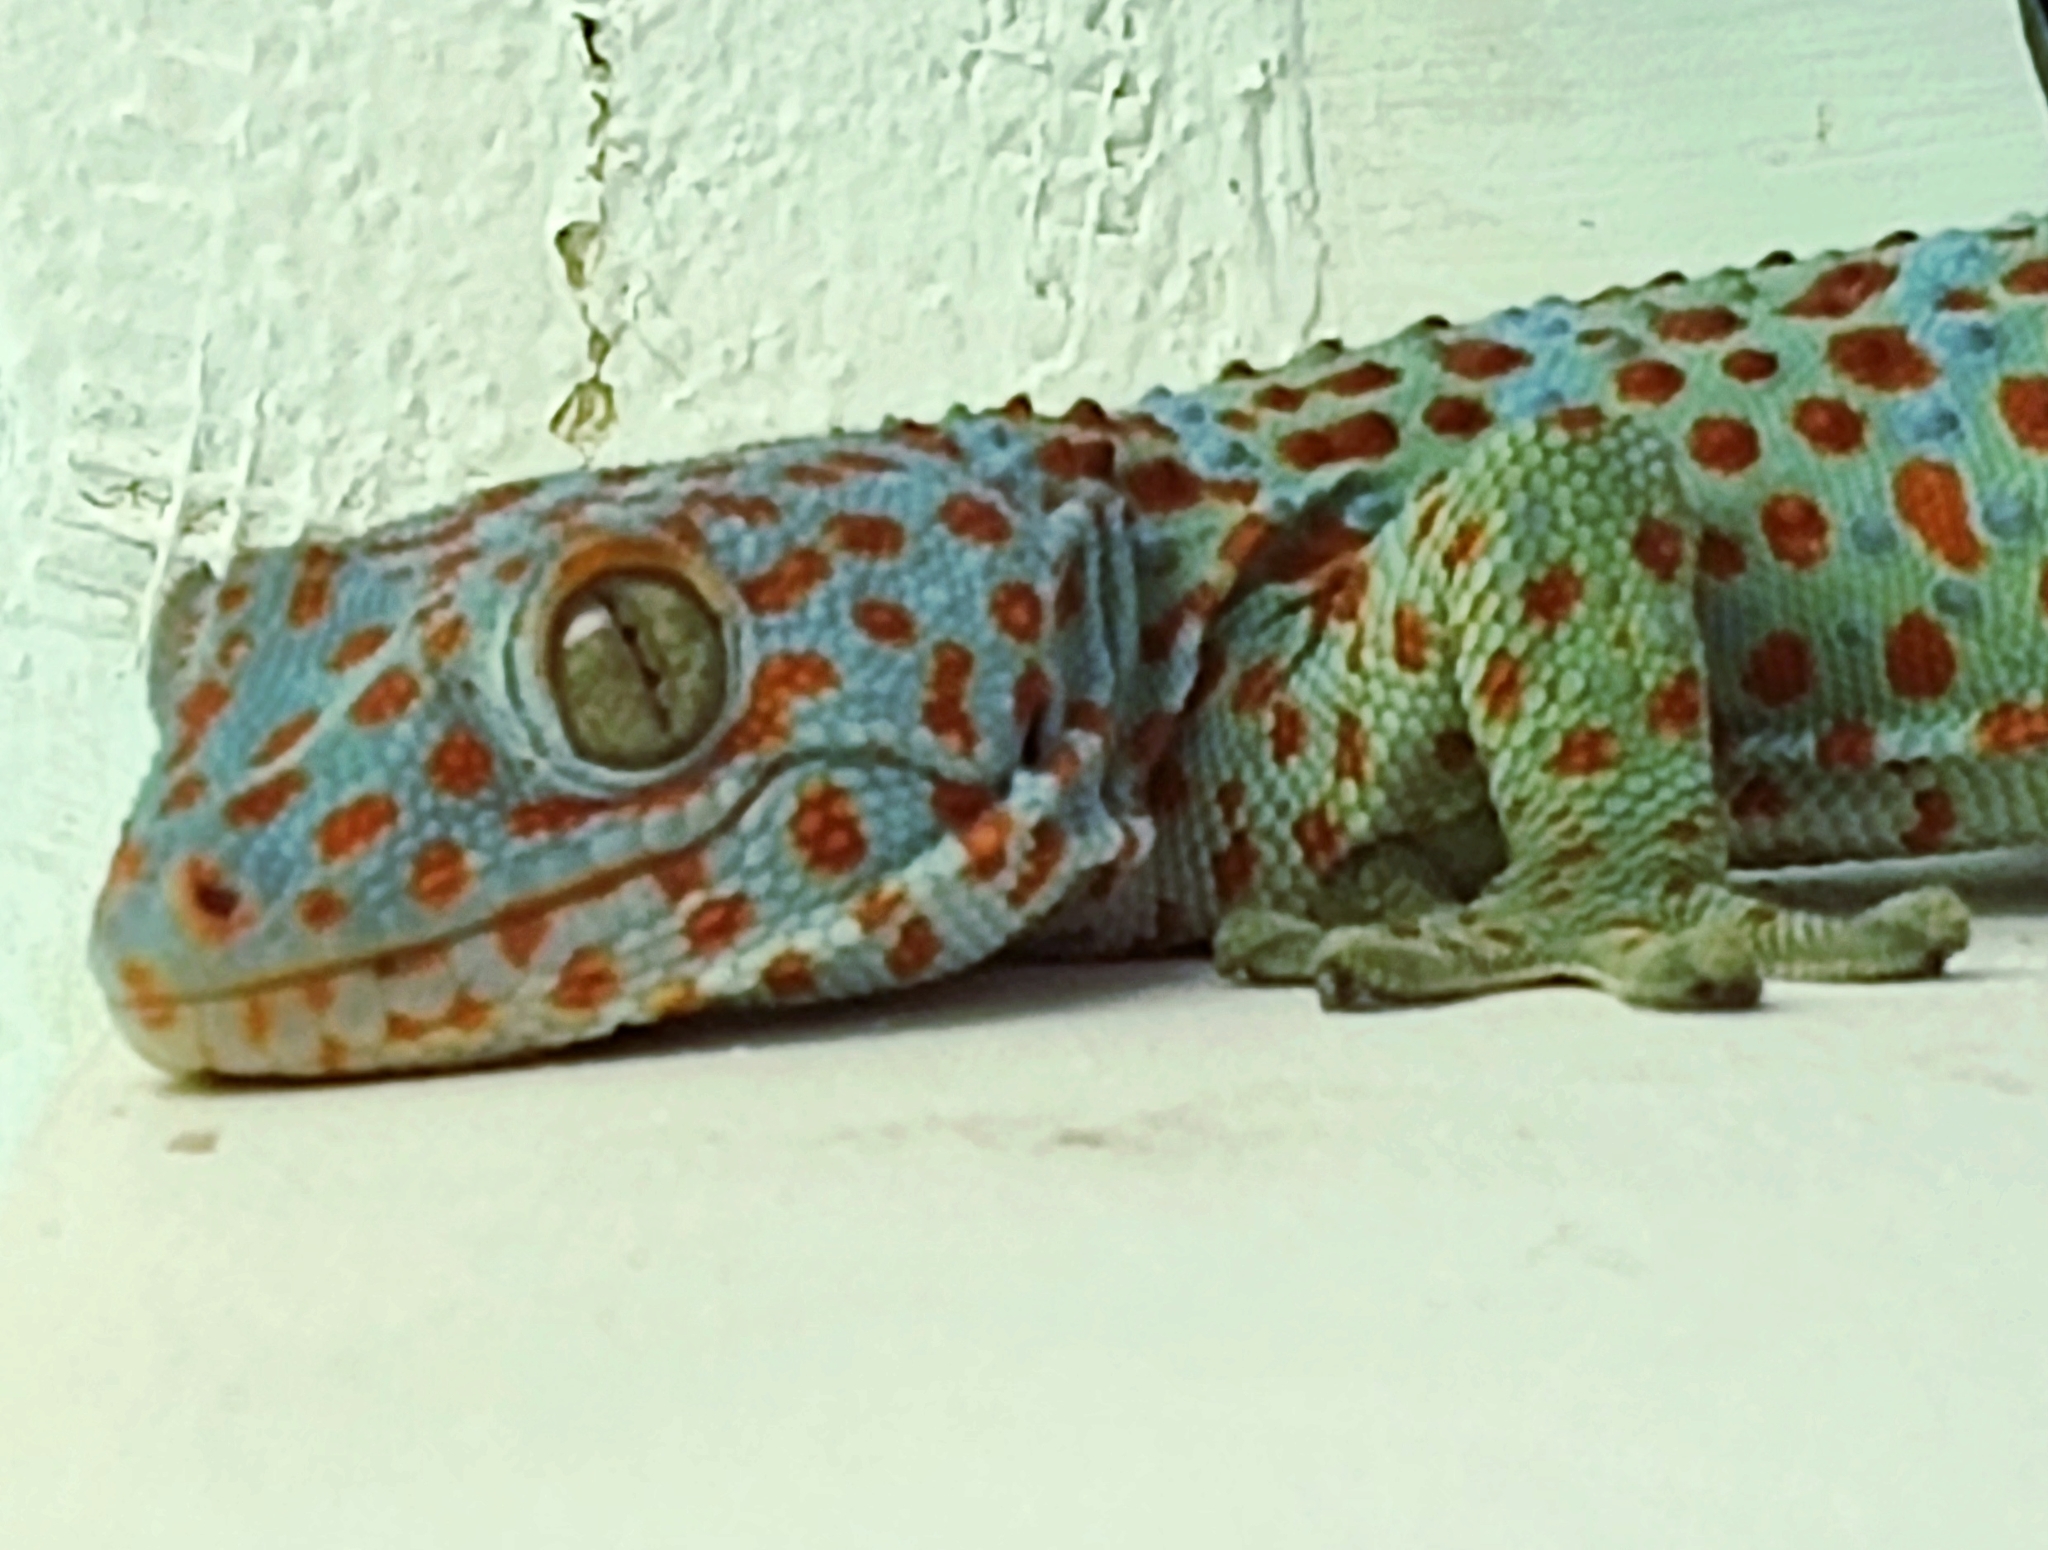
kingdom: Animalia
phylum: Chordata
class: Squamata
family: Gekkonidae
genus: Gekko
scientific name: Gekko gecko
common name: Tokay gecko
